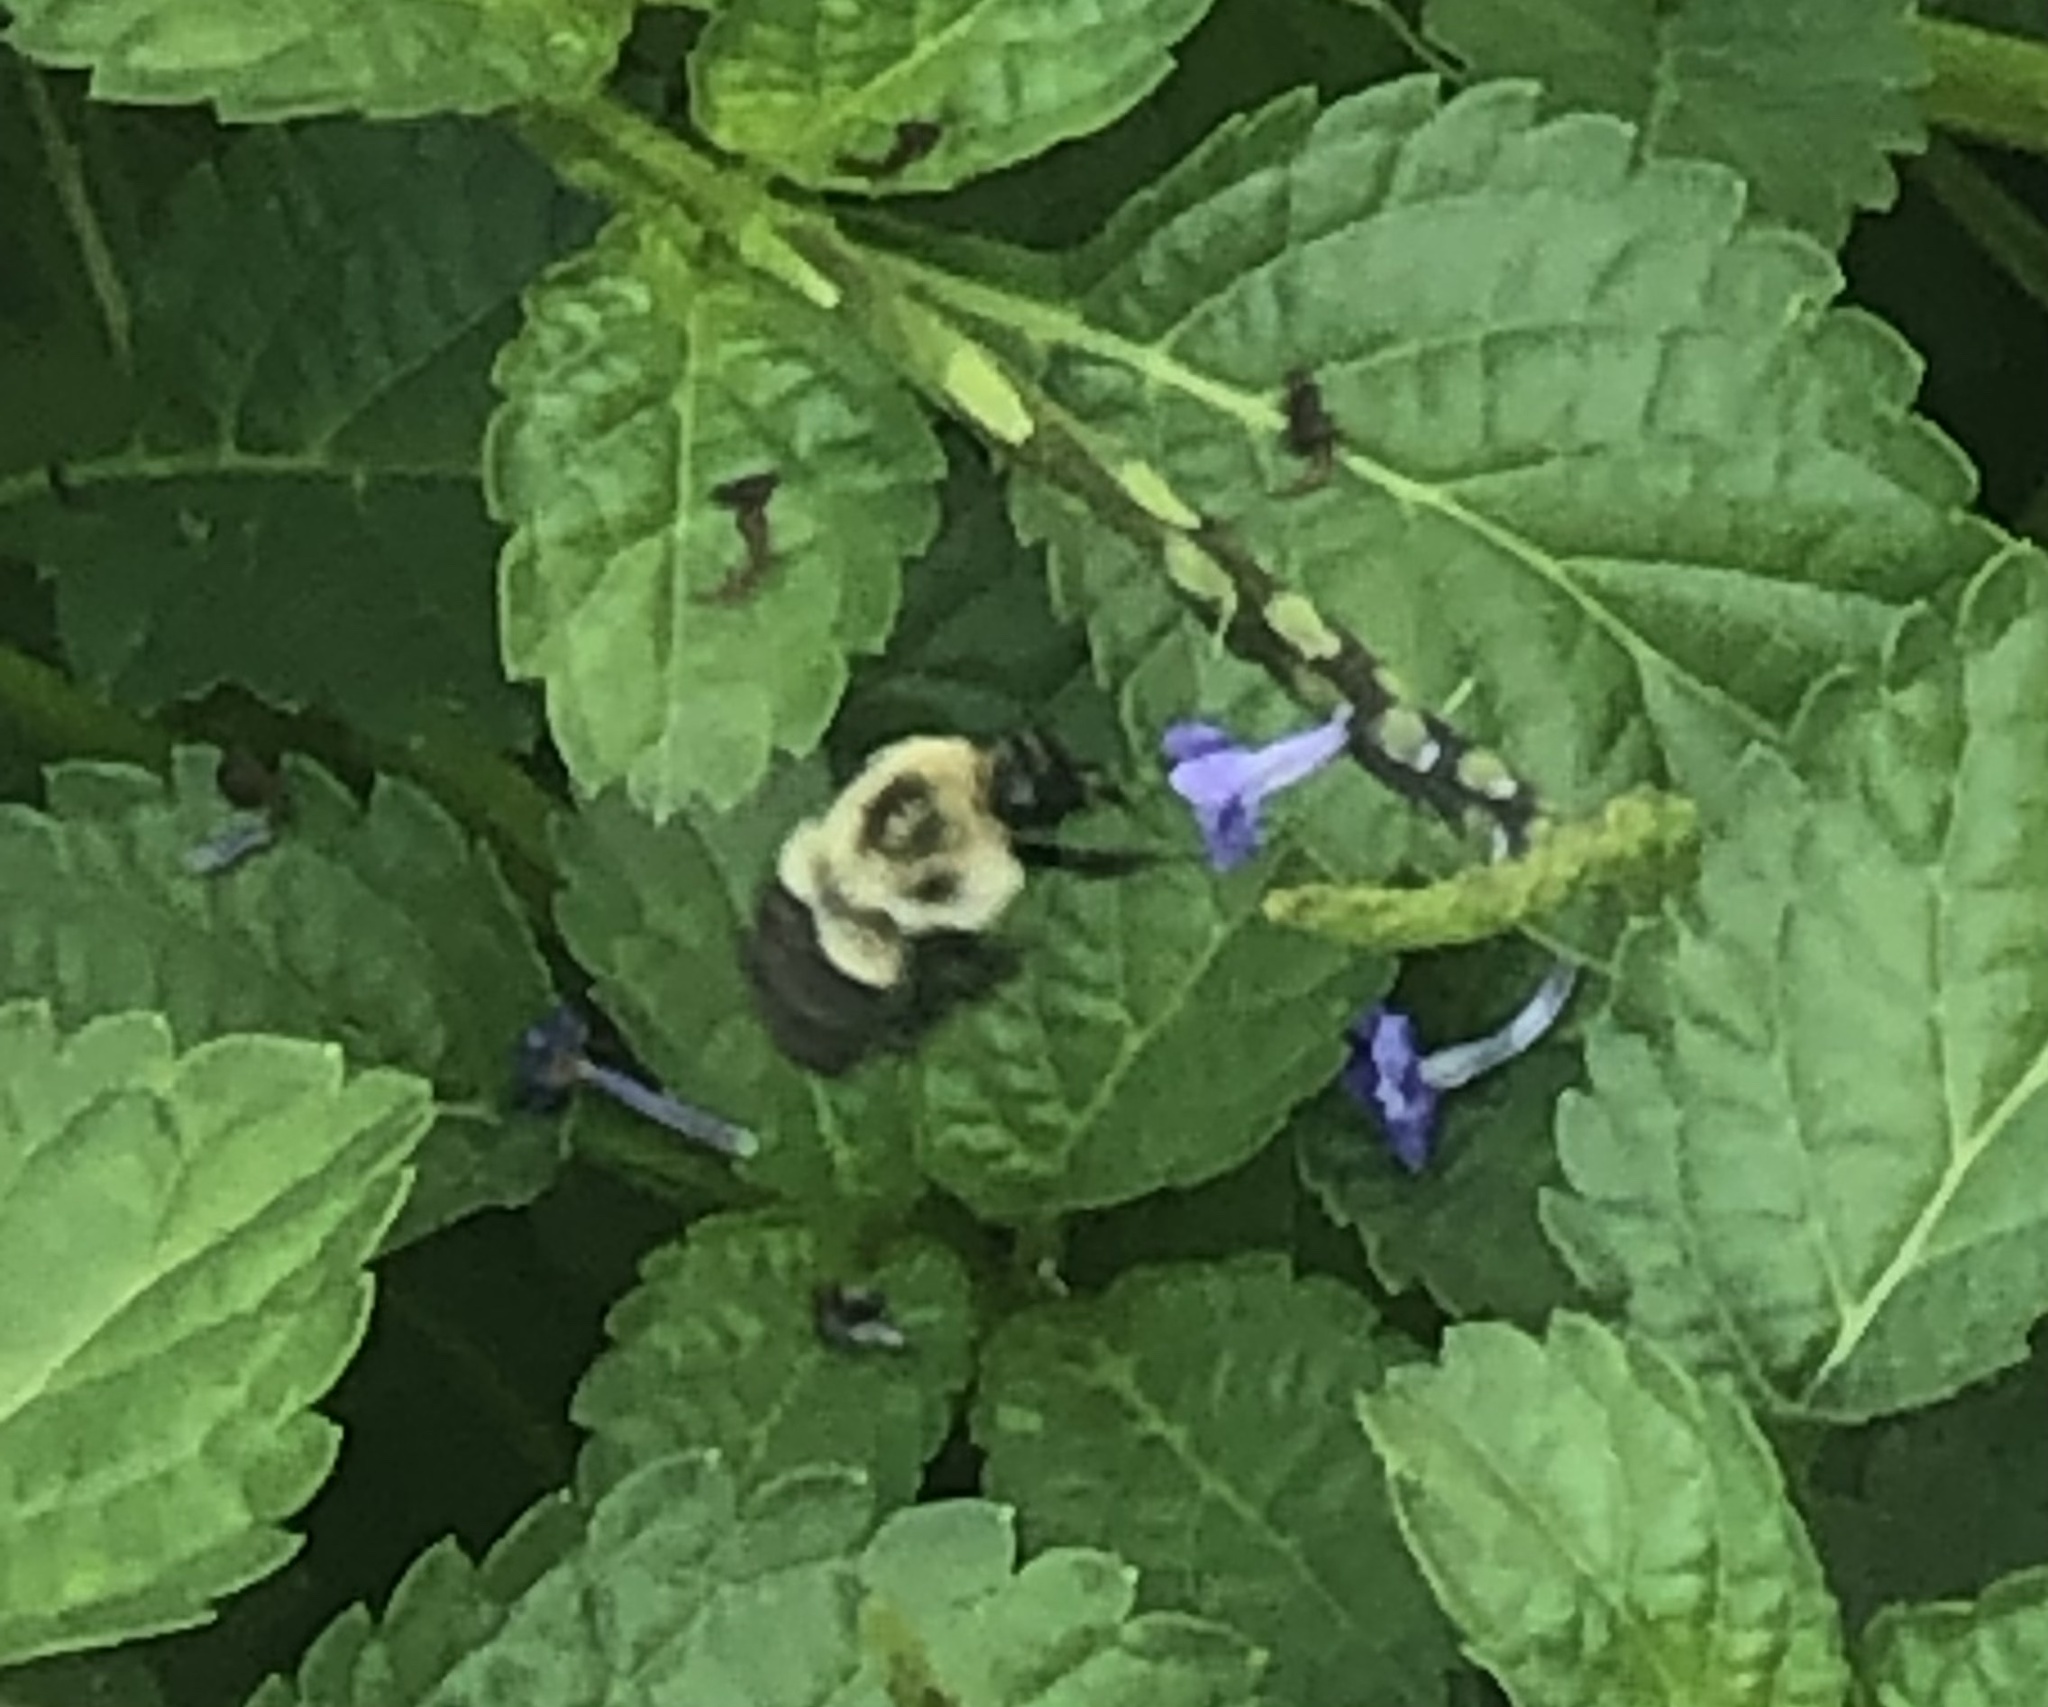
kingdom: Animalia
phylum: Arthropoda
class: Insecta
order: Hymenoptera
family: Apidae
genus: Bombus
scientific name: Bombus impatiens
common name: Common eastern bumble bee
